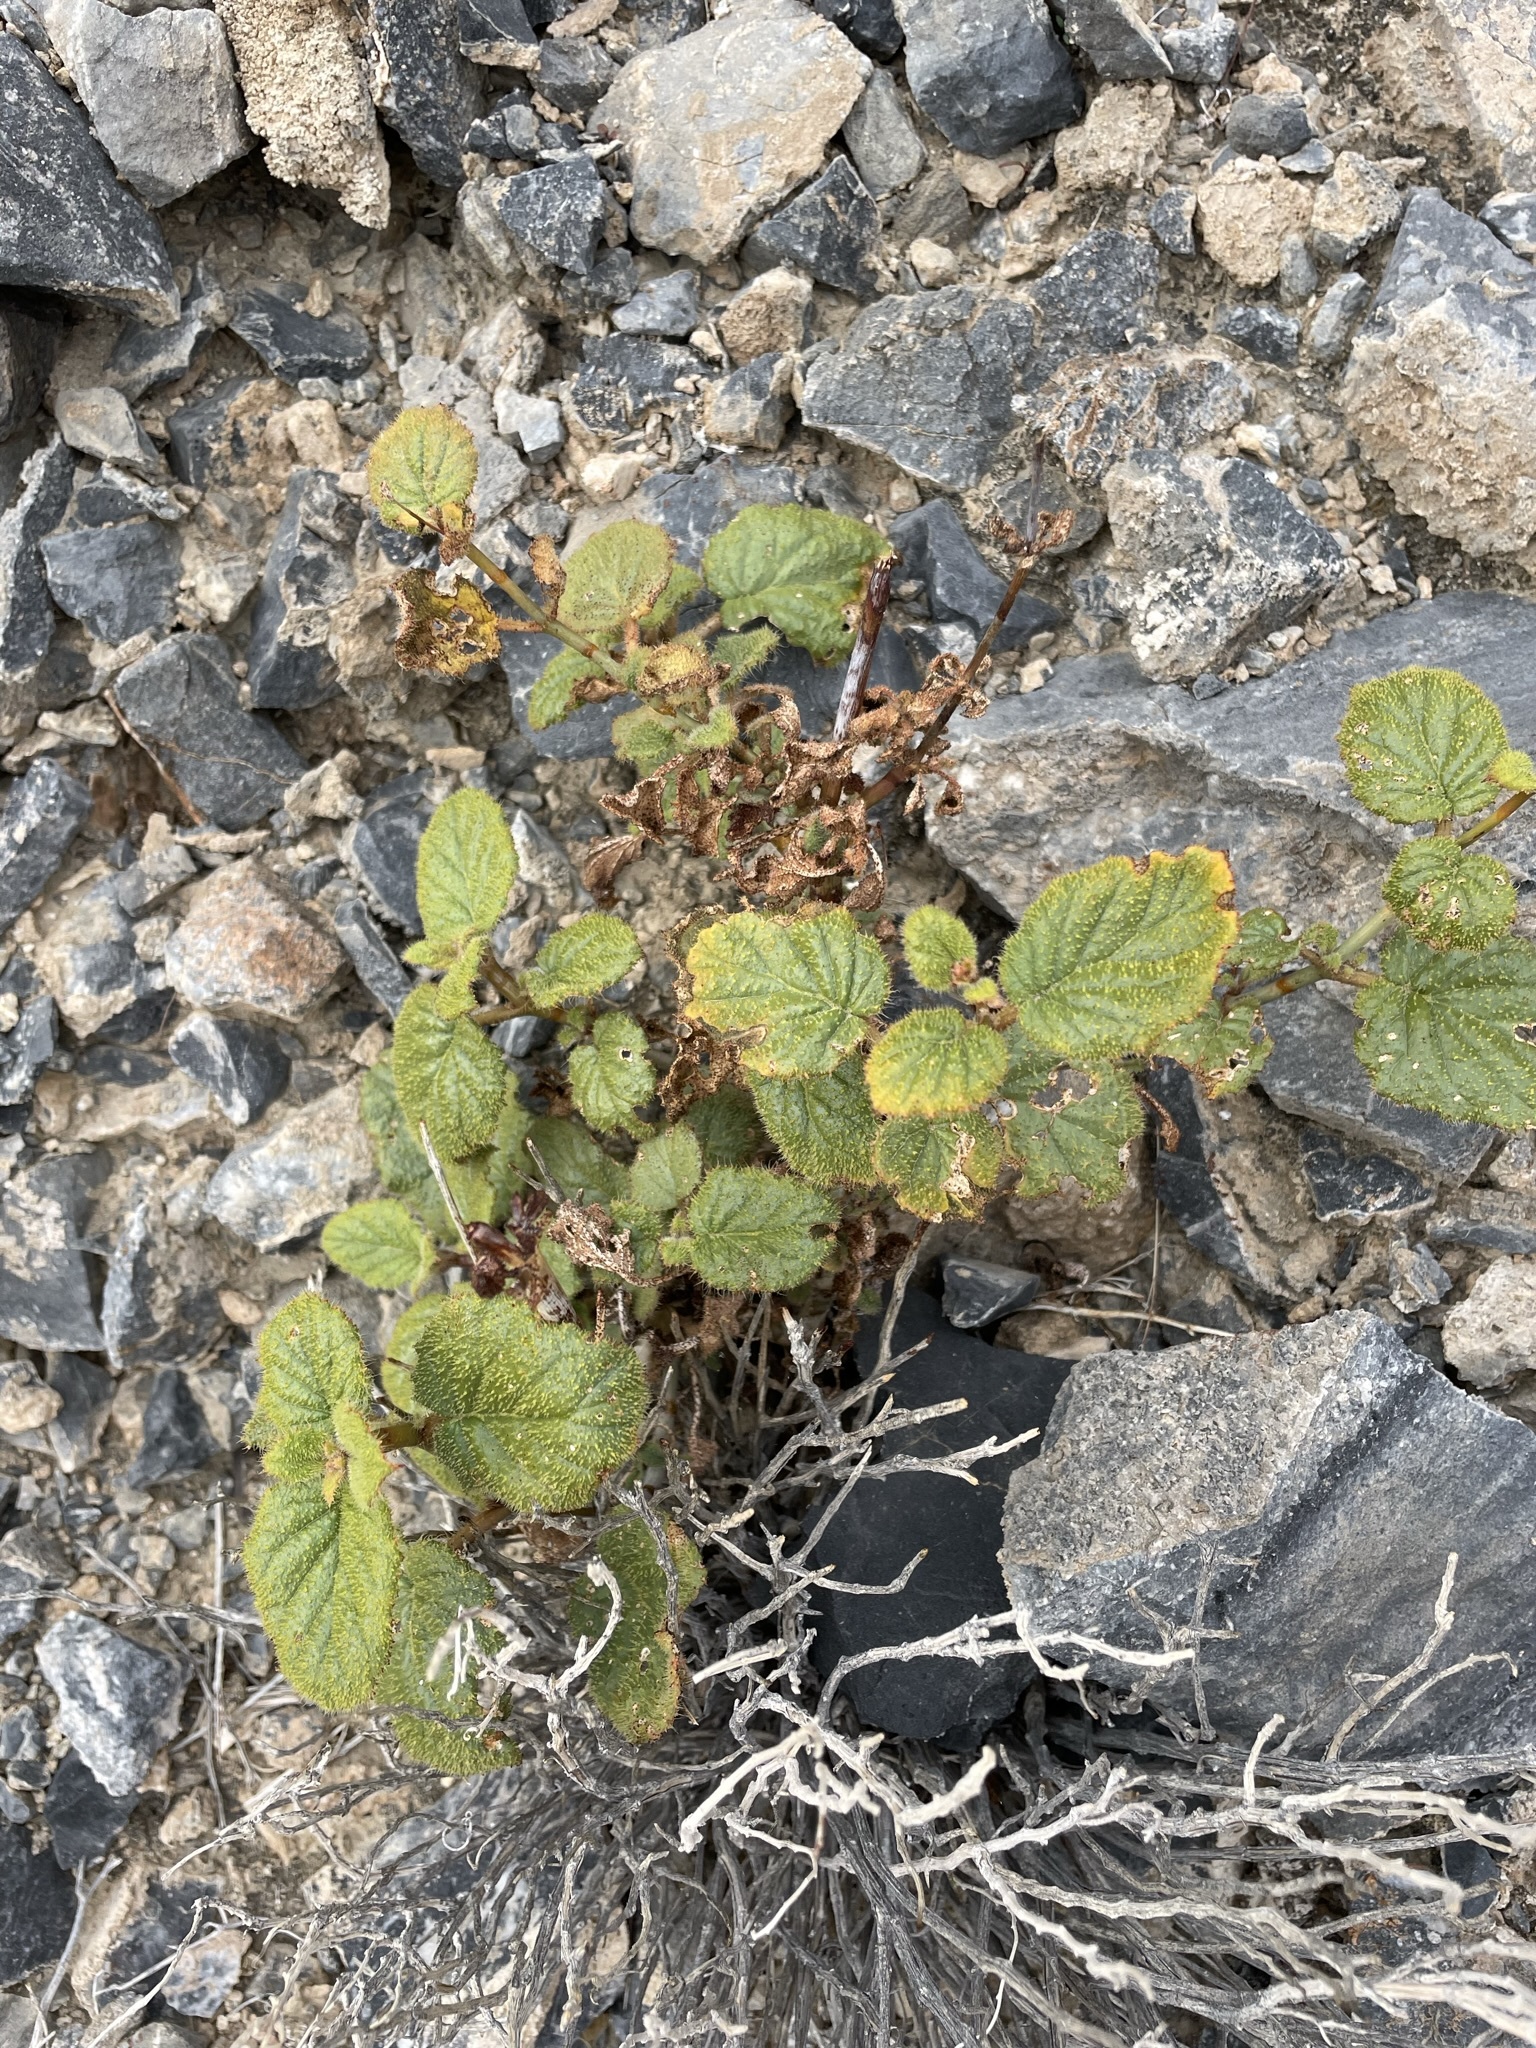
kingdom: Plantae
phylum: Tracheophyta
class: Magnoliopsida
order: Caryophyllales
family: Nyctaginaceae
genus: Anulocaulis
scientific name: Anulocaulis annulatus
